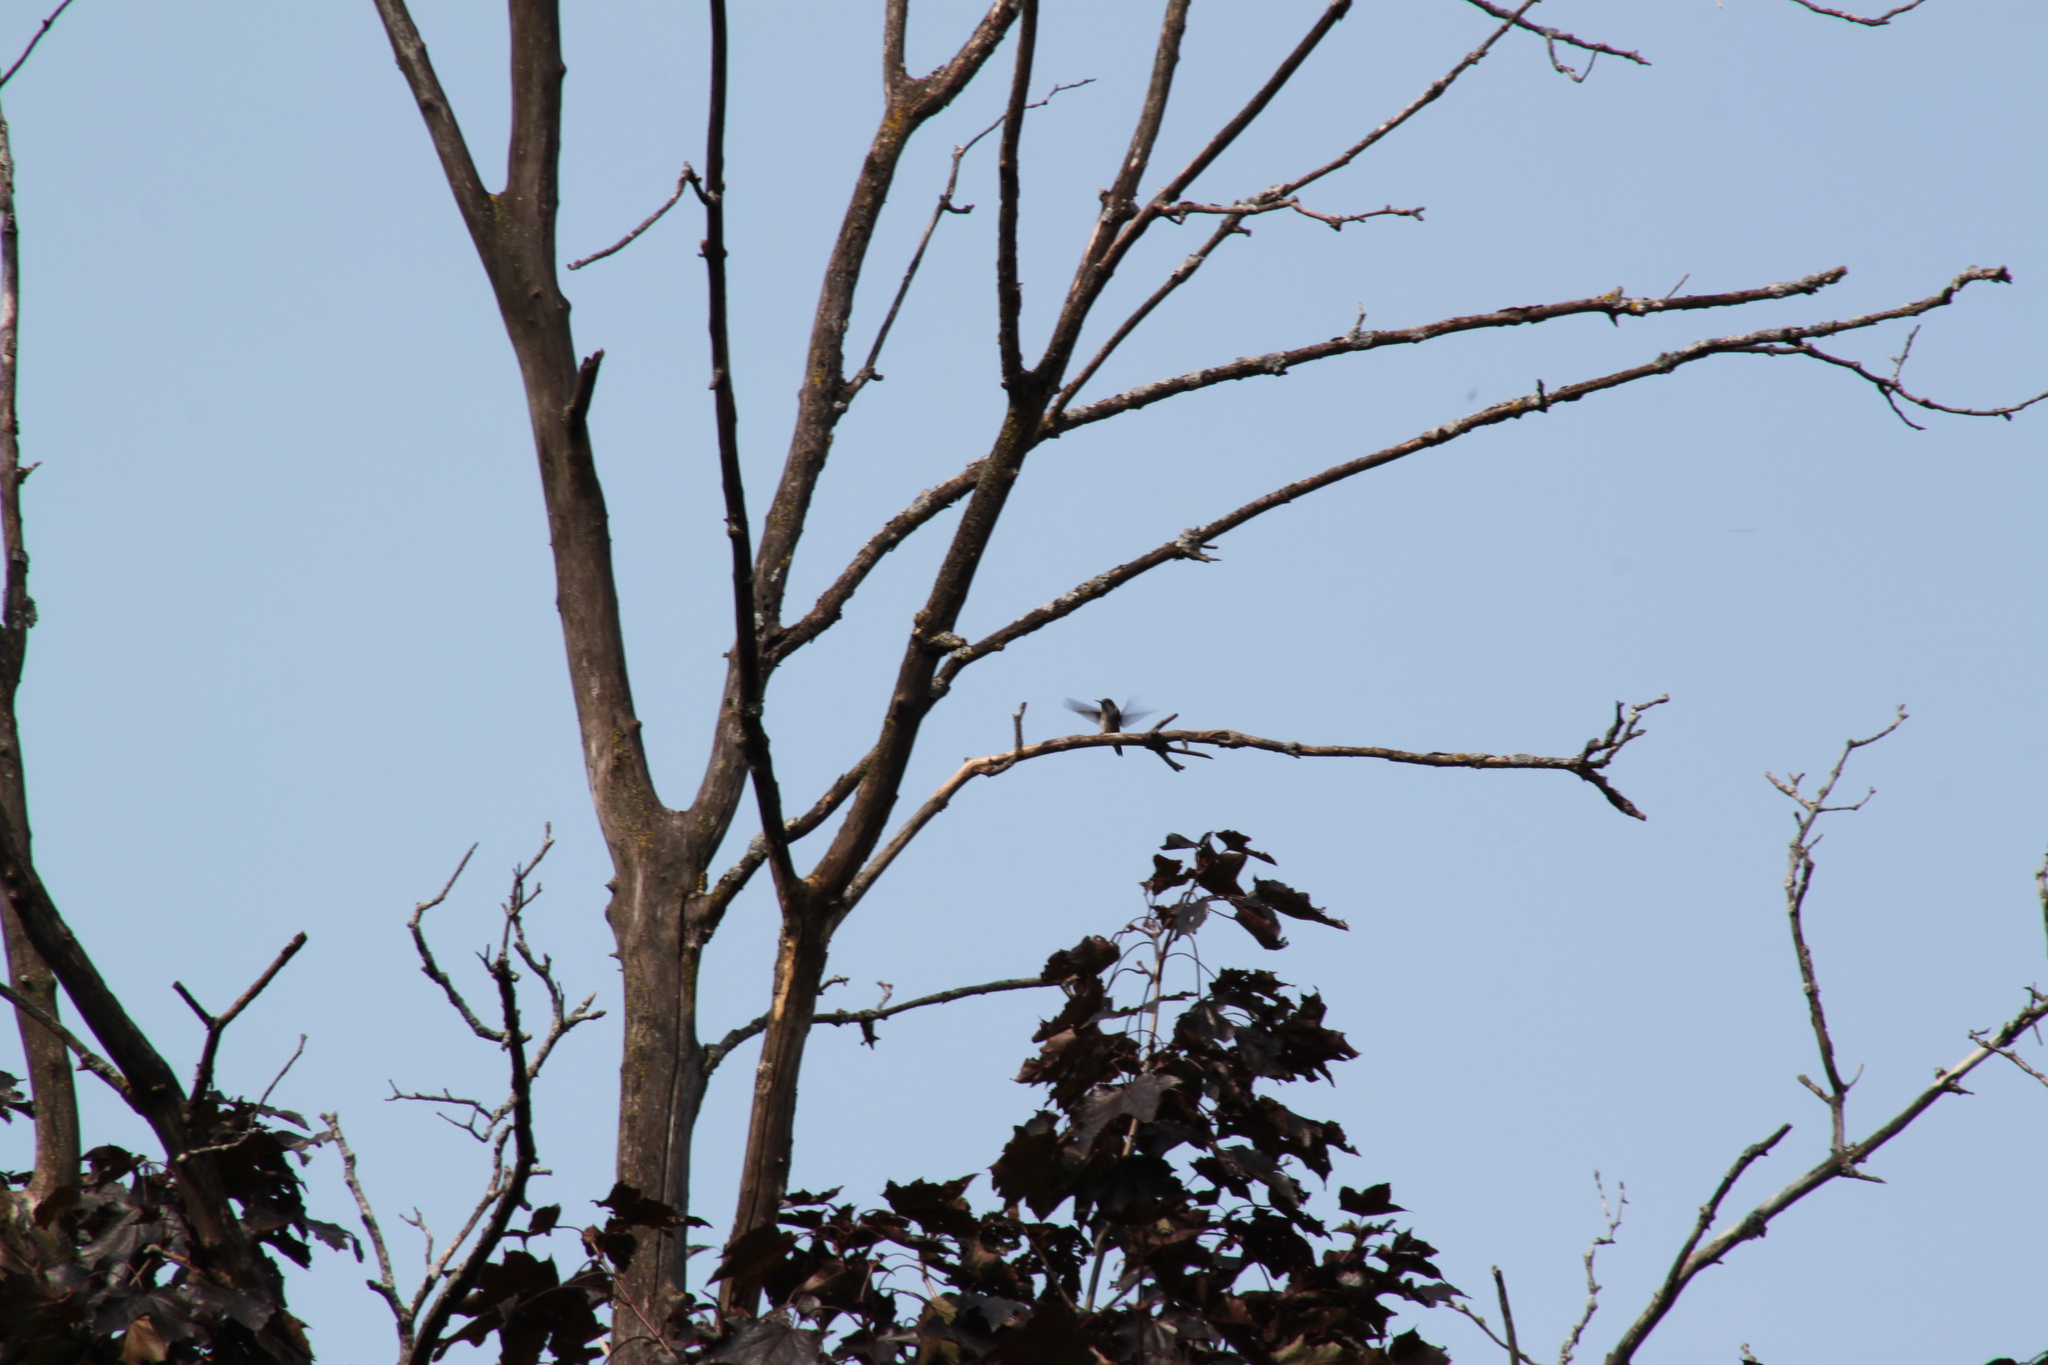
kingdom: Animalia
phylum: Chordata
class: Aves
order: Apodiformes
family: Trochilidae
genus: Archilochus
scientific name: Archilochus colubris
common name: Ruby-throated hummingbird
